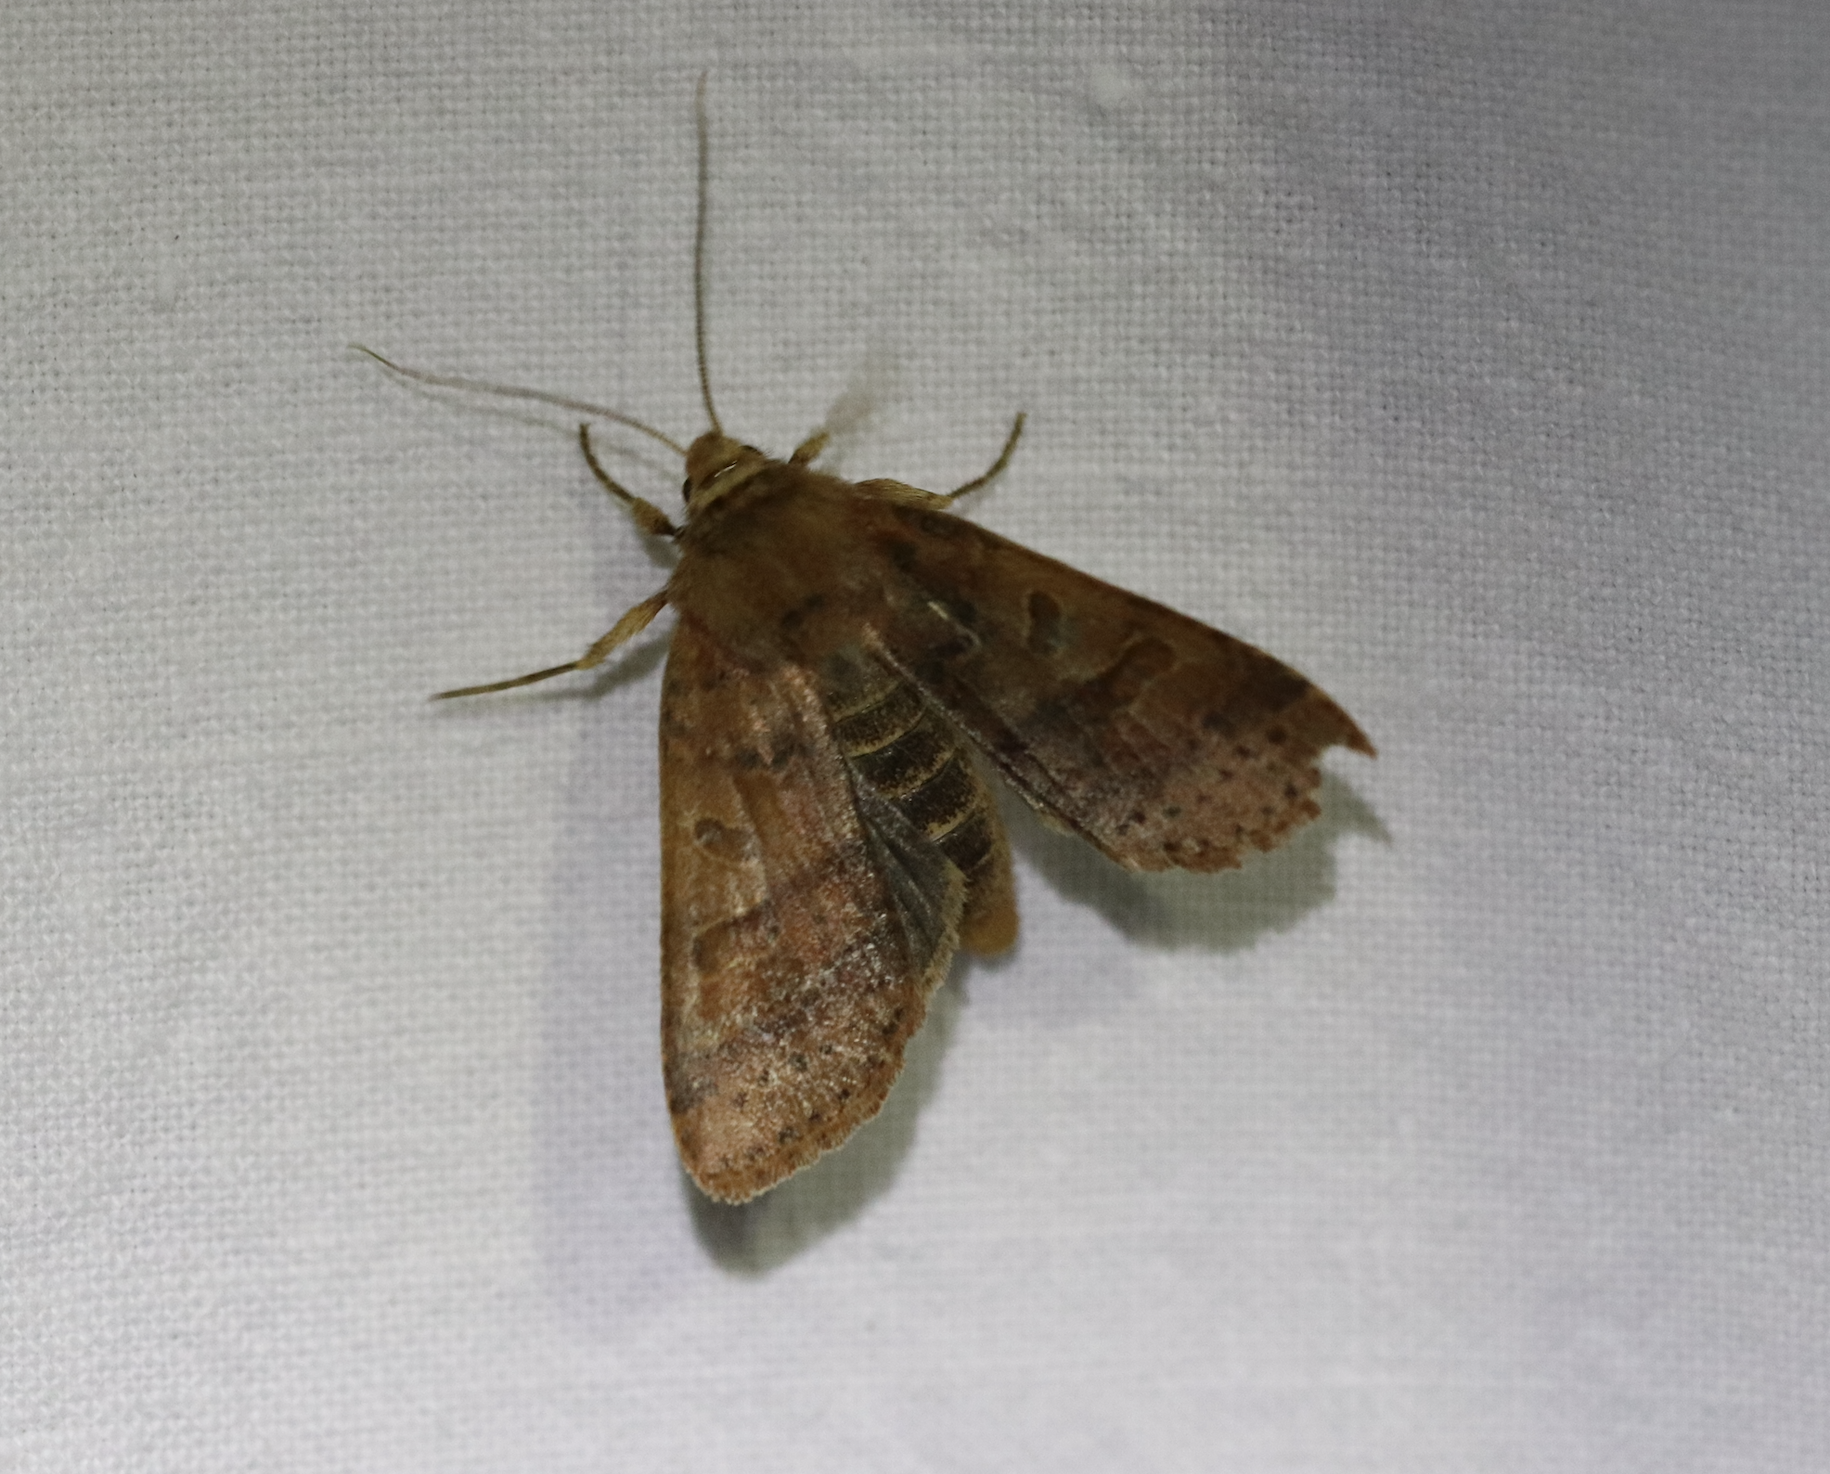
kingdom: Animalia
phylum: Arthropoda
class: Insecta
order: Lepidoptera
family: Noctuidae
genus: Agrochola
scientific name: Agrochola nitida
